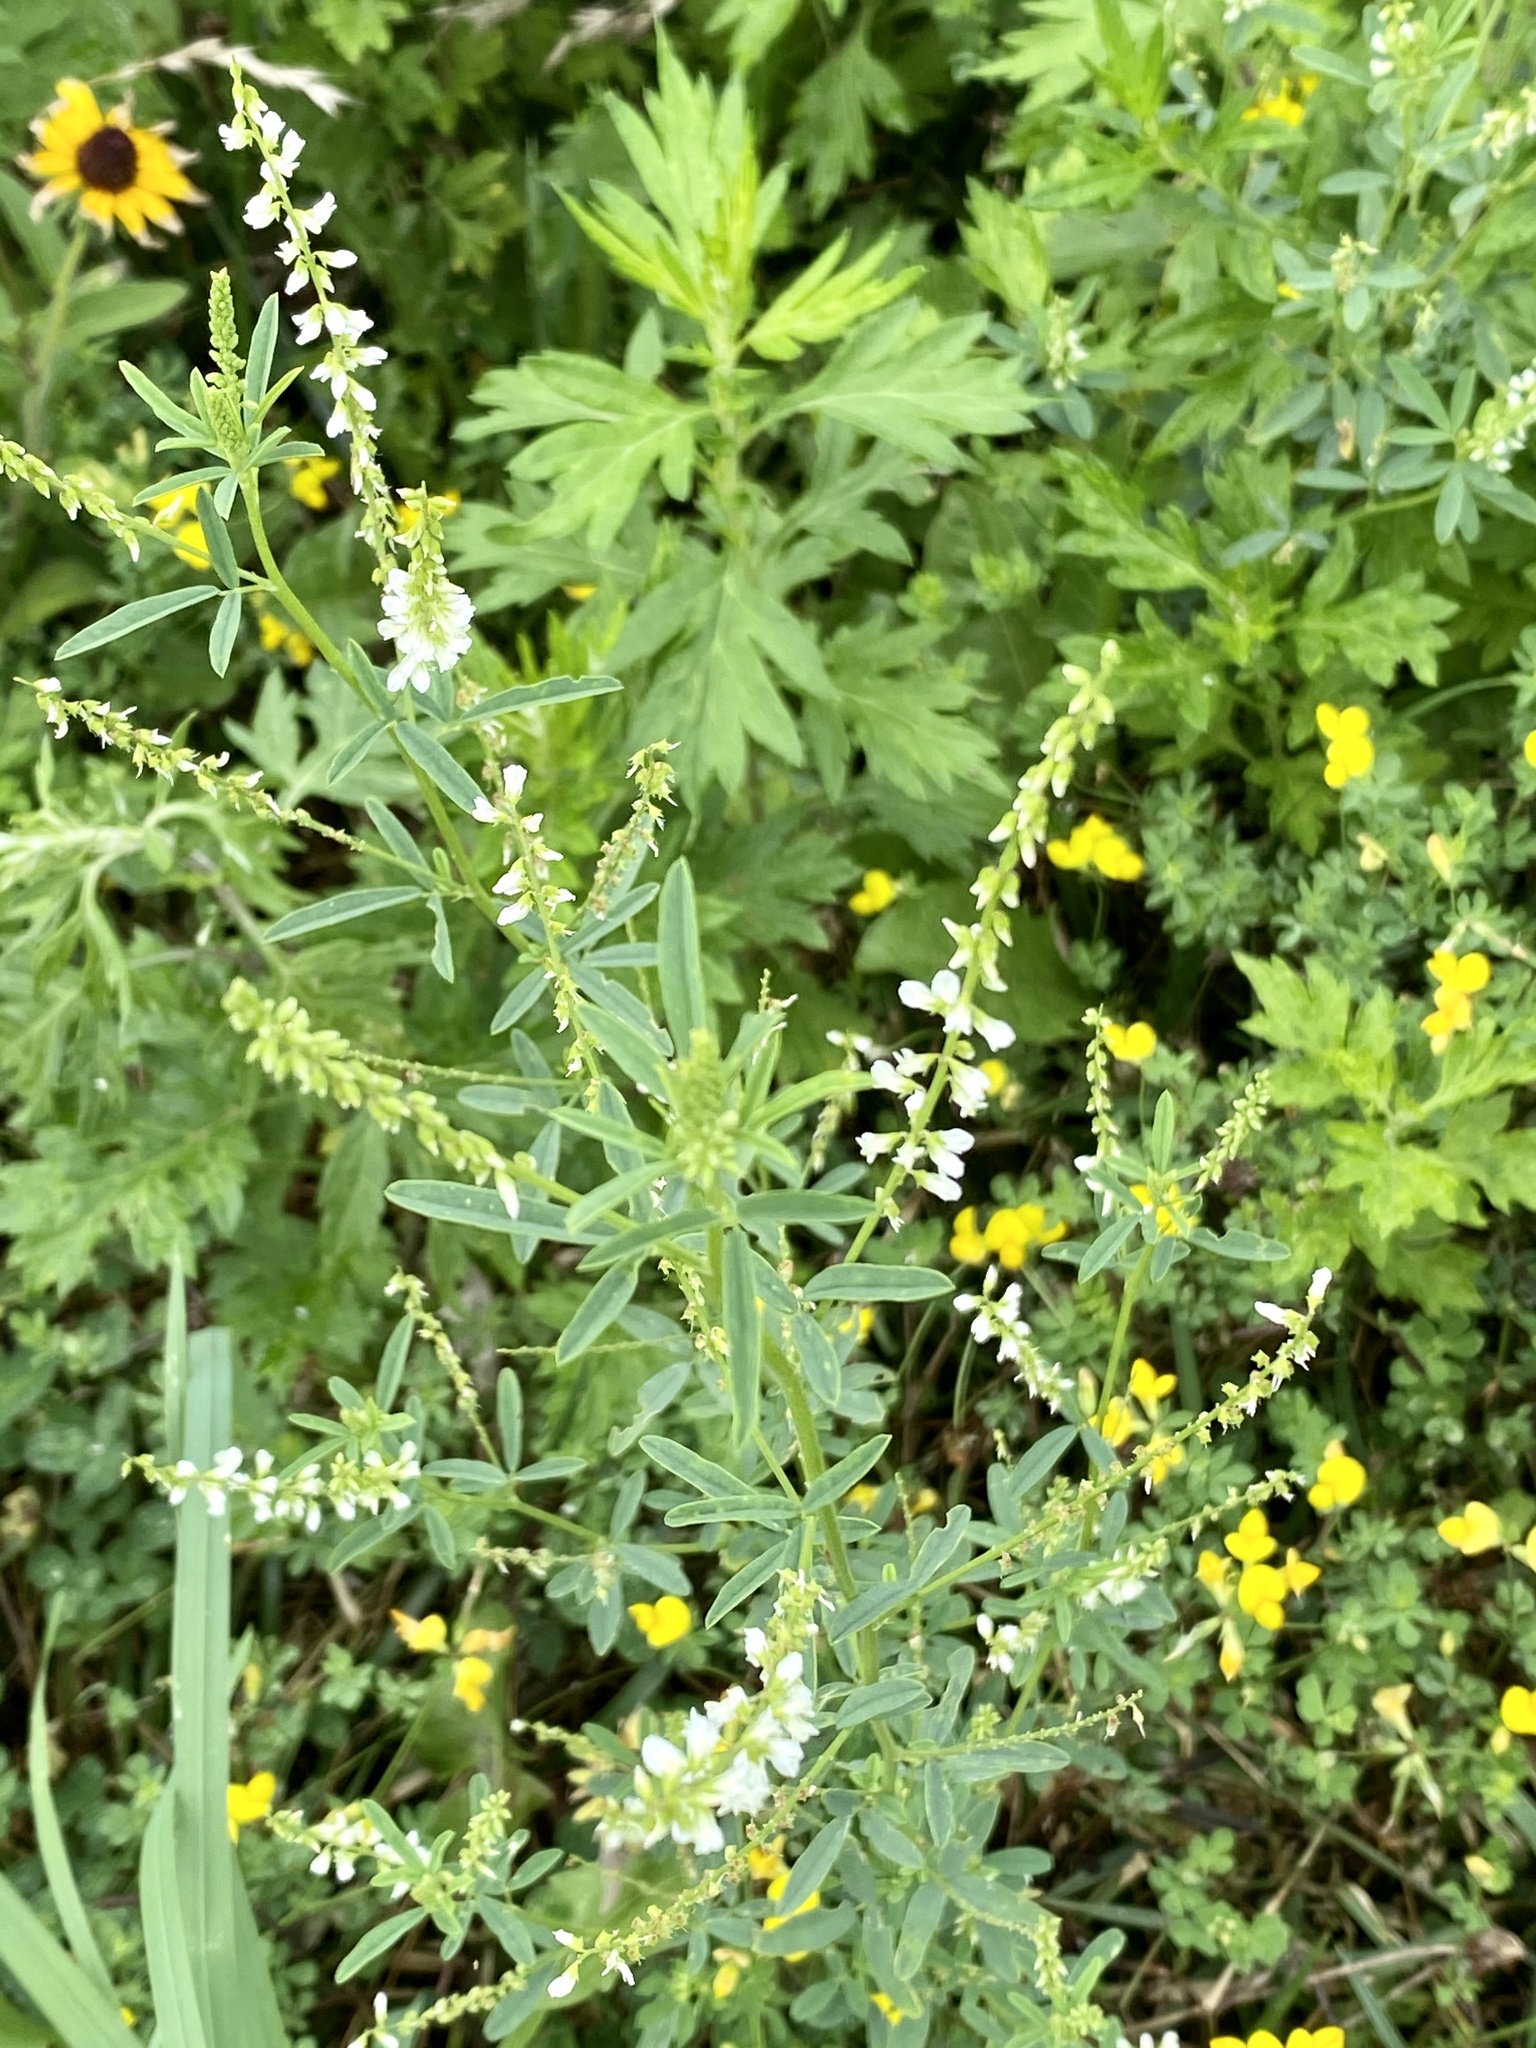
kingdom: Plantae
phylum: Tracheophyta
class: Magnoliopsida
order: Fabales
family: Fabaceae
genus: Melilotus
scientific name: Melilotus albus
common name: White melilot
